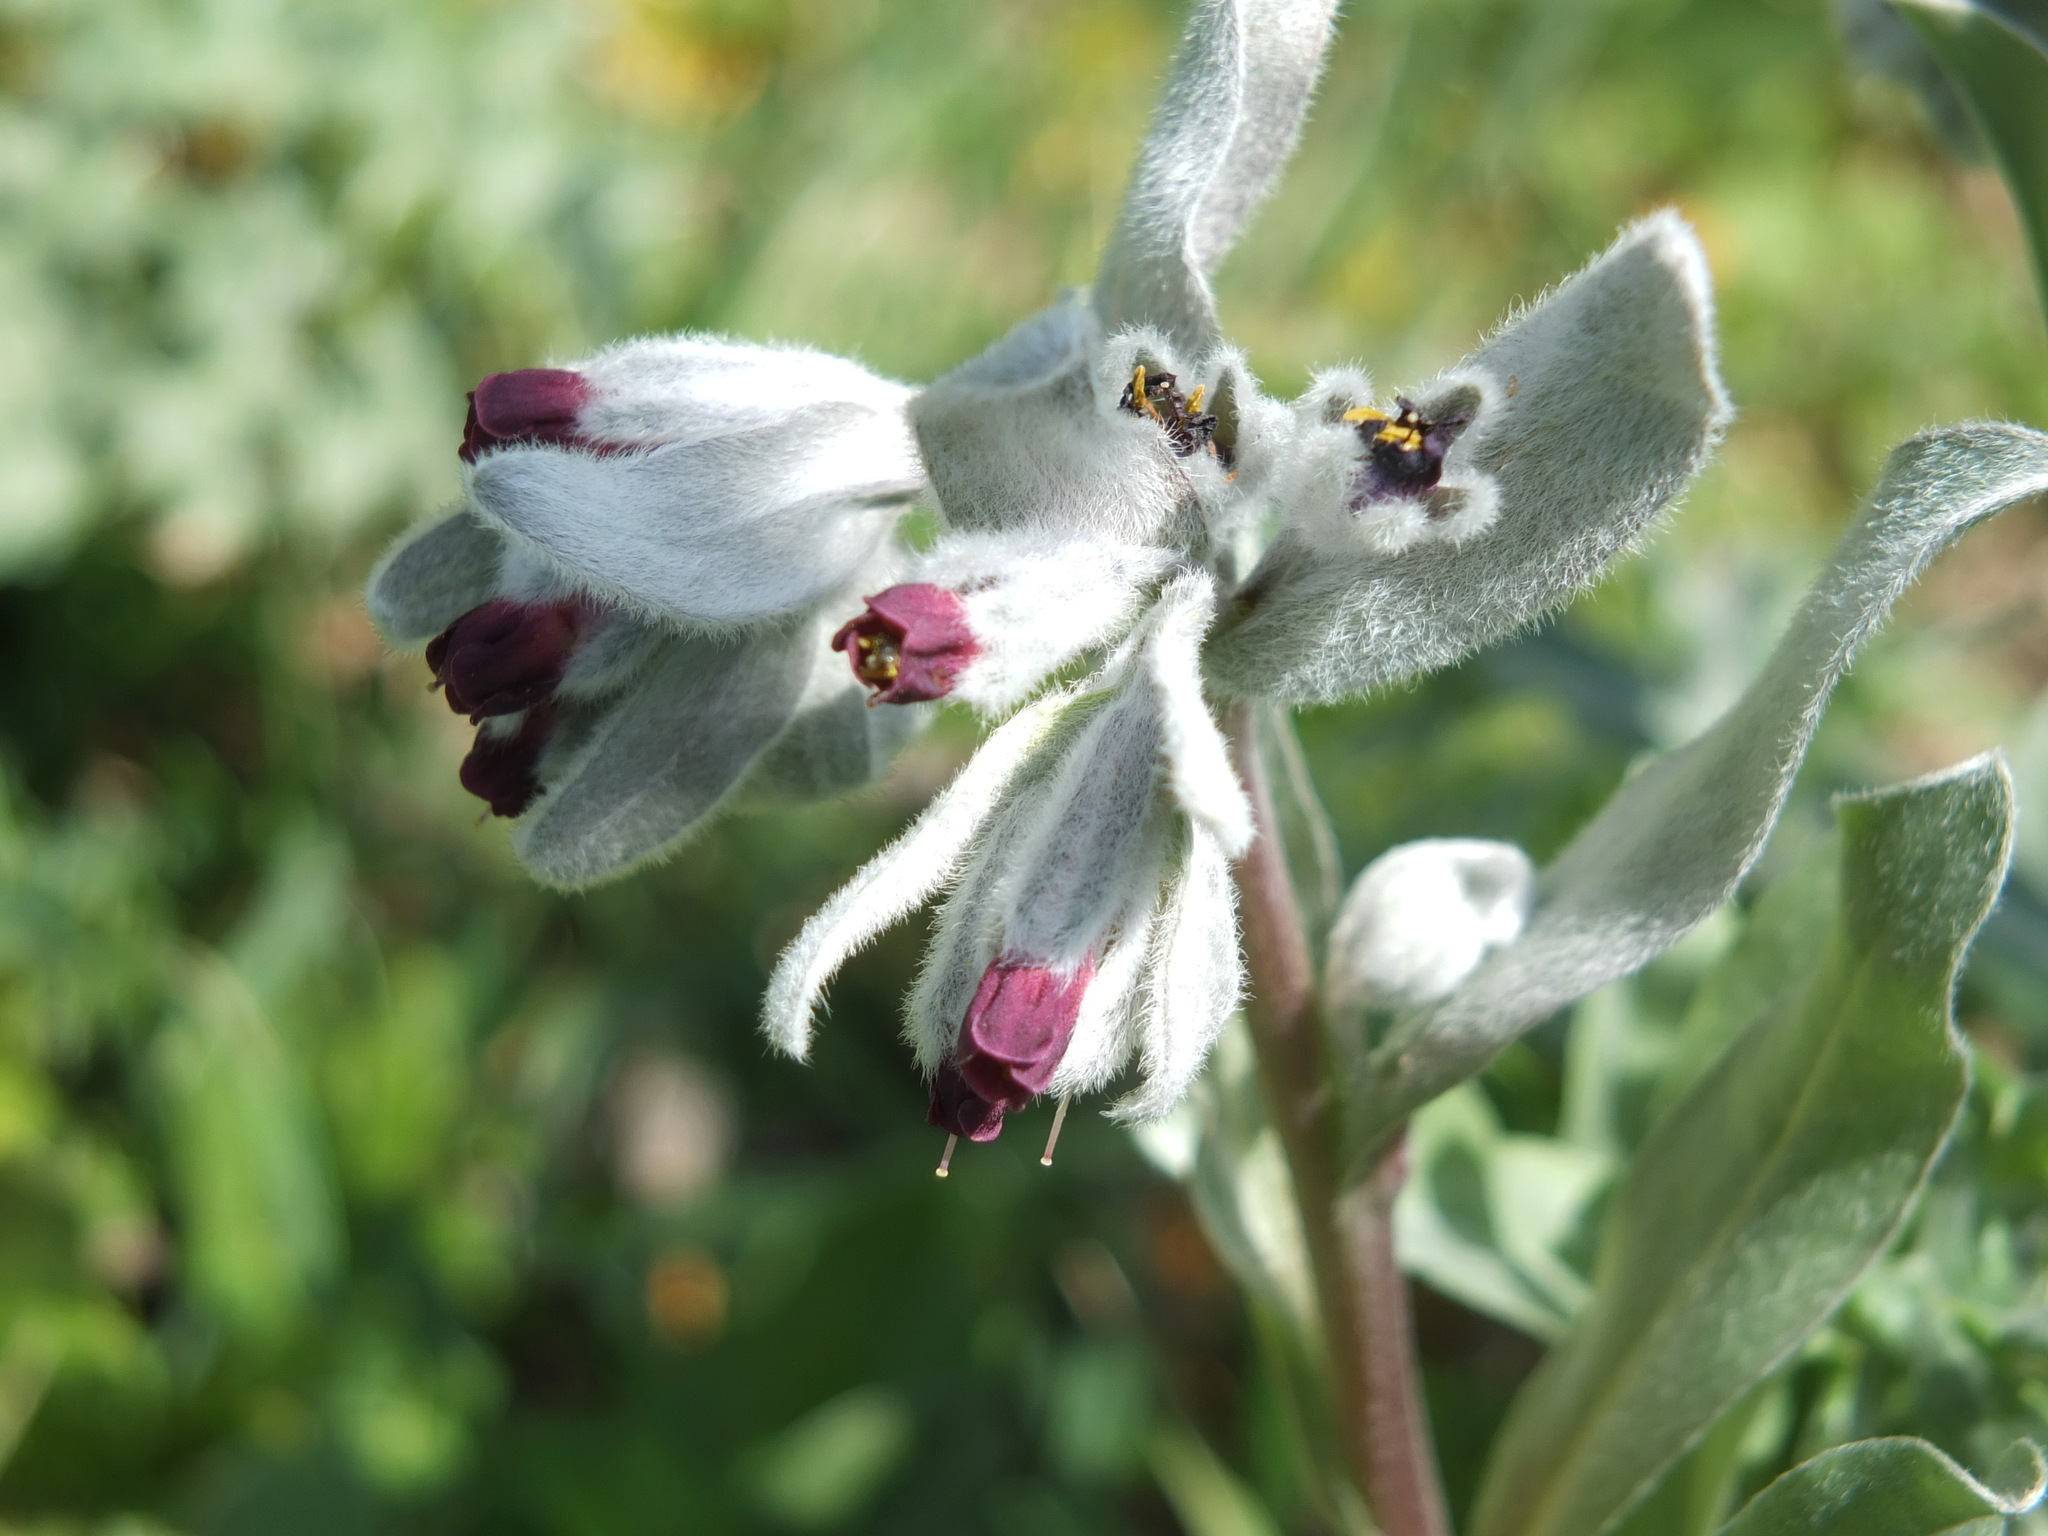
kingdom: Plantae
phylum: Tracheophyta
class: Magnoliopsida
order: Boraginales
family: Boraginaceae
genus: Pardoglossum
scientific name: Pardoglossum tubiflorum
